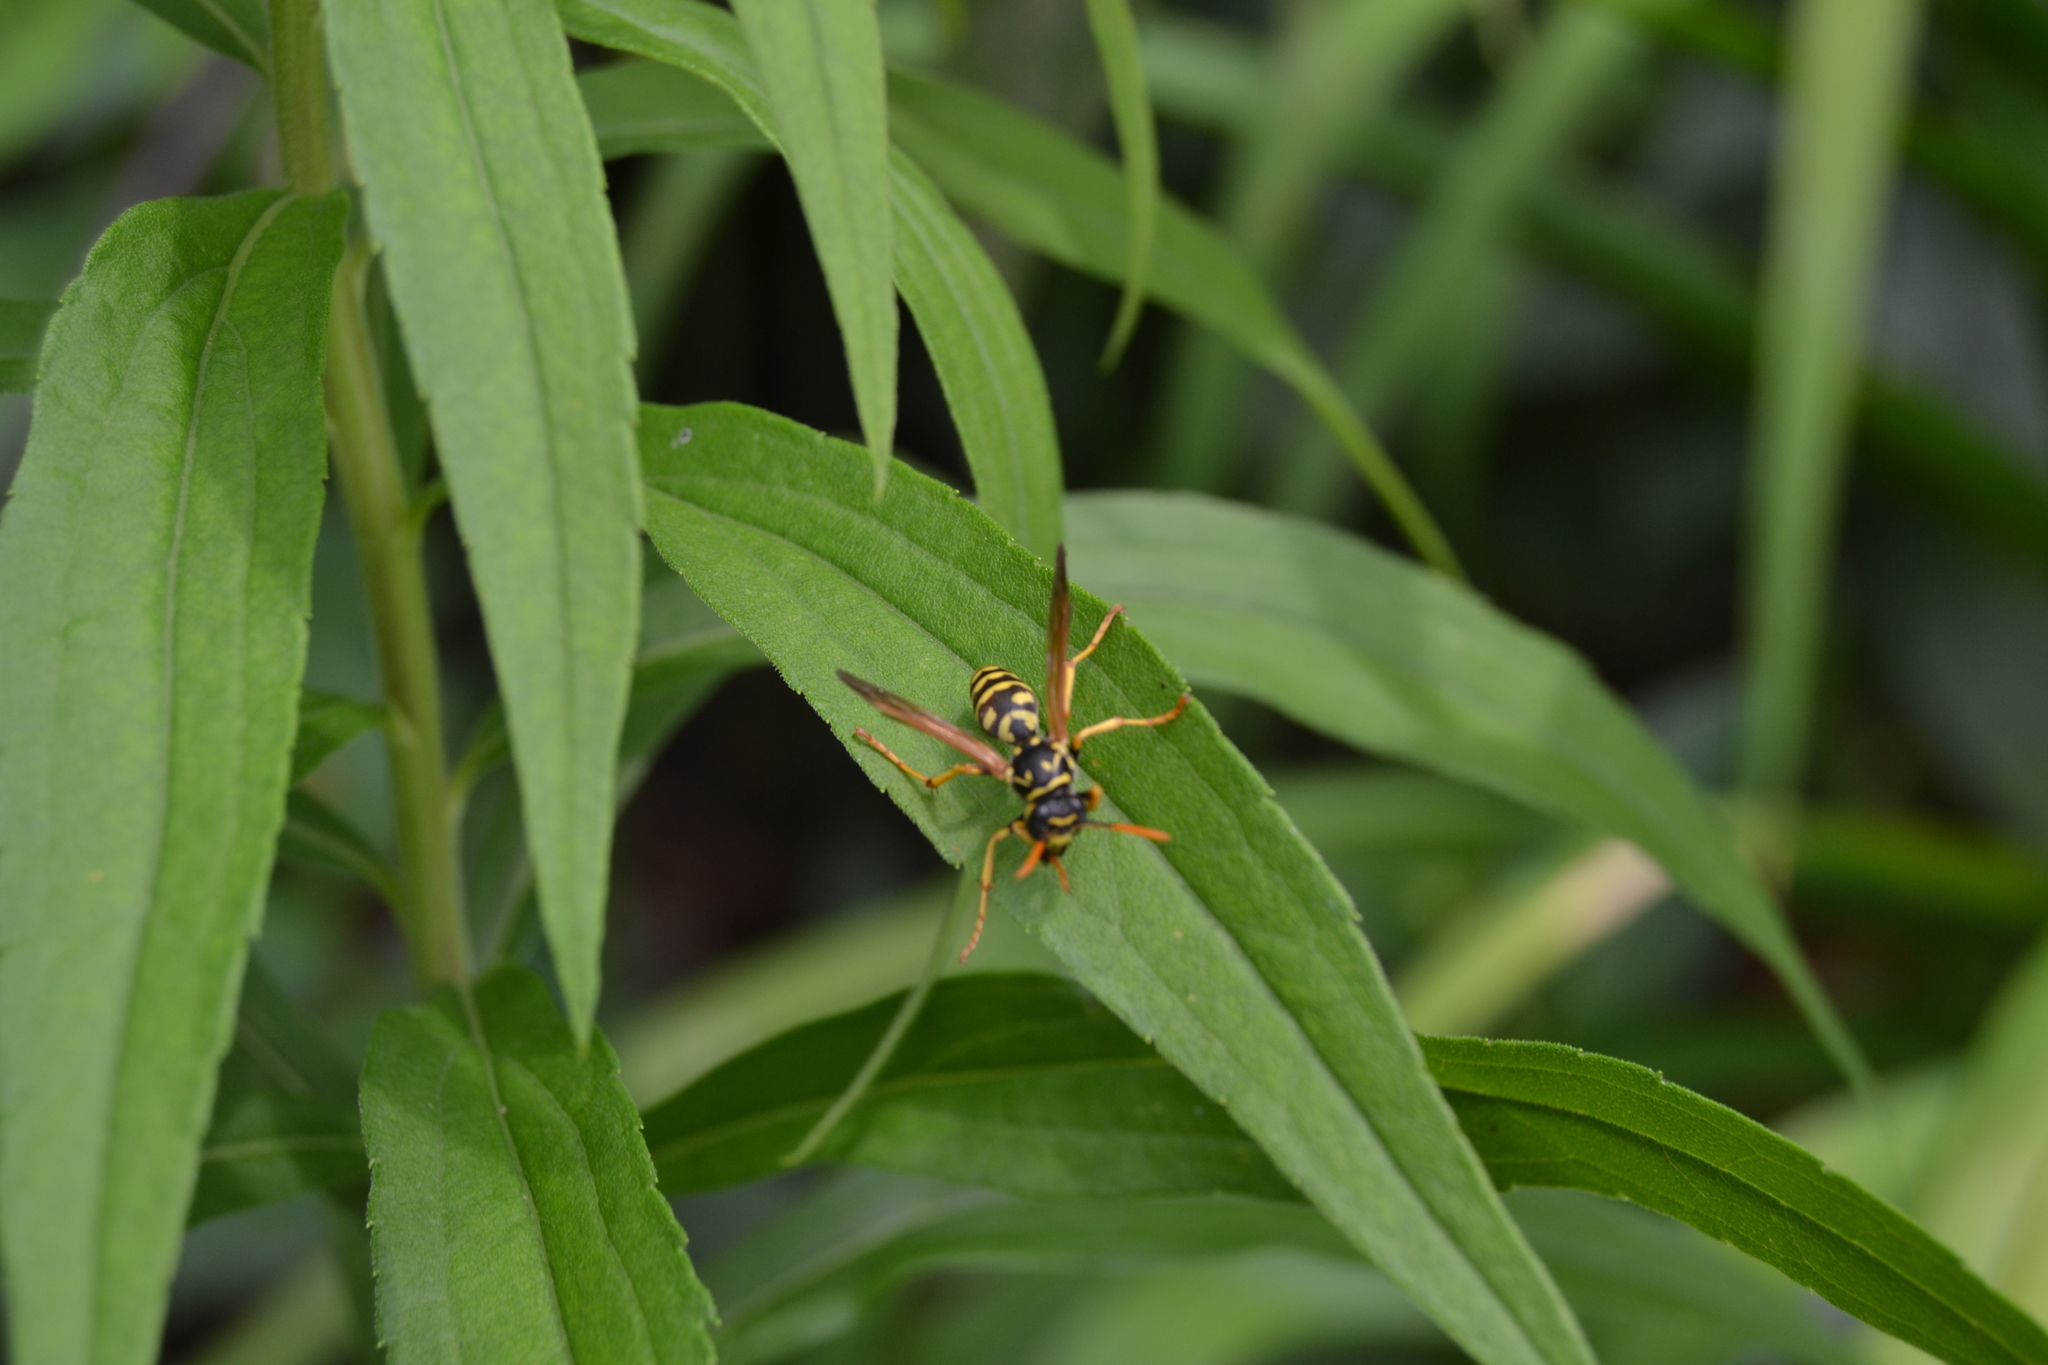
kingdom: Animalia
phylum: Arthropoda
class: Insecta
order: Hymenoptera
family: Eumenidae
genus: Polistes
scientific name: Polistes dominula
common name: Paper wasp
